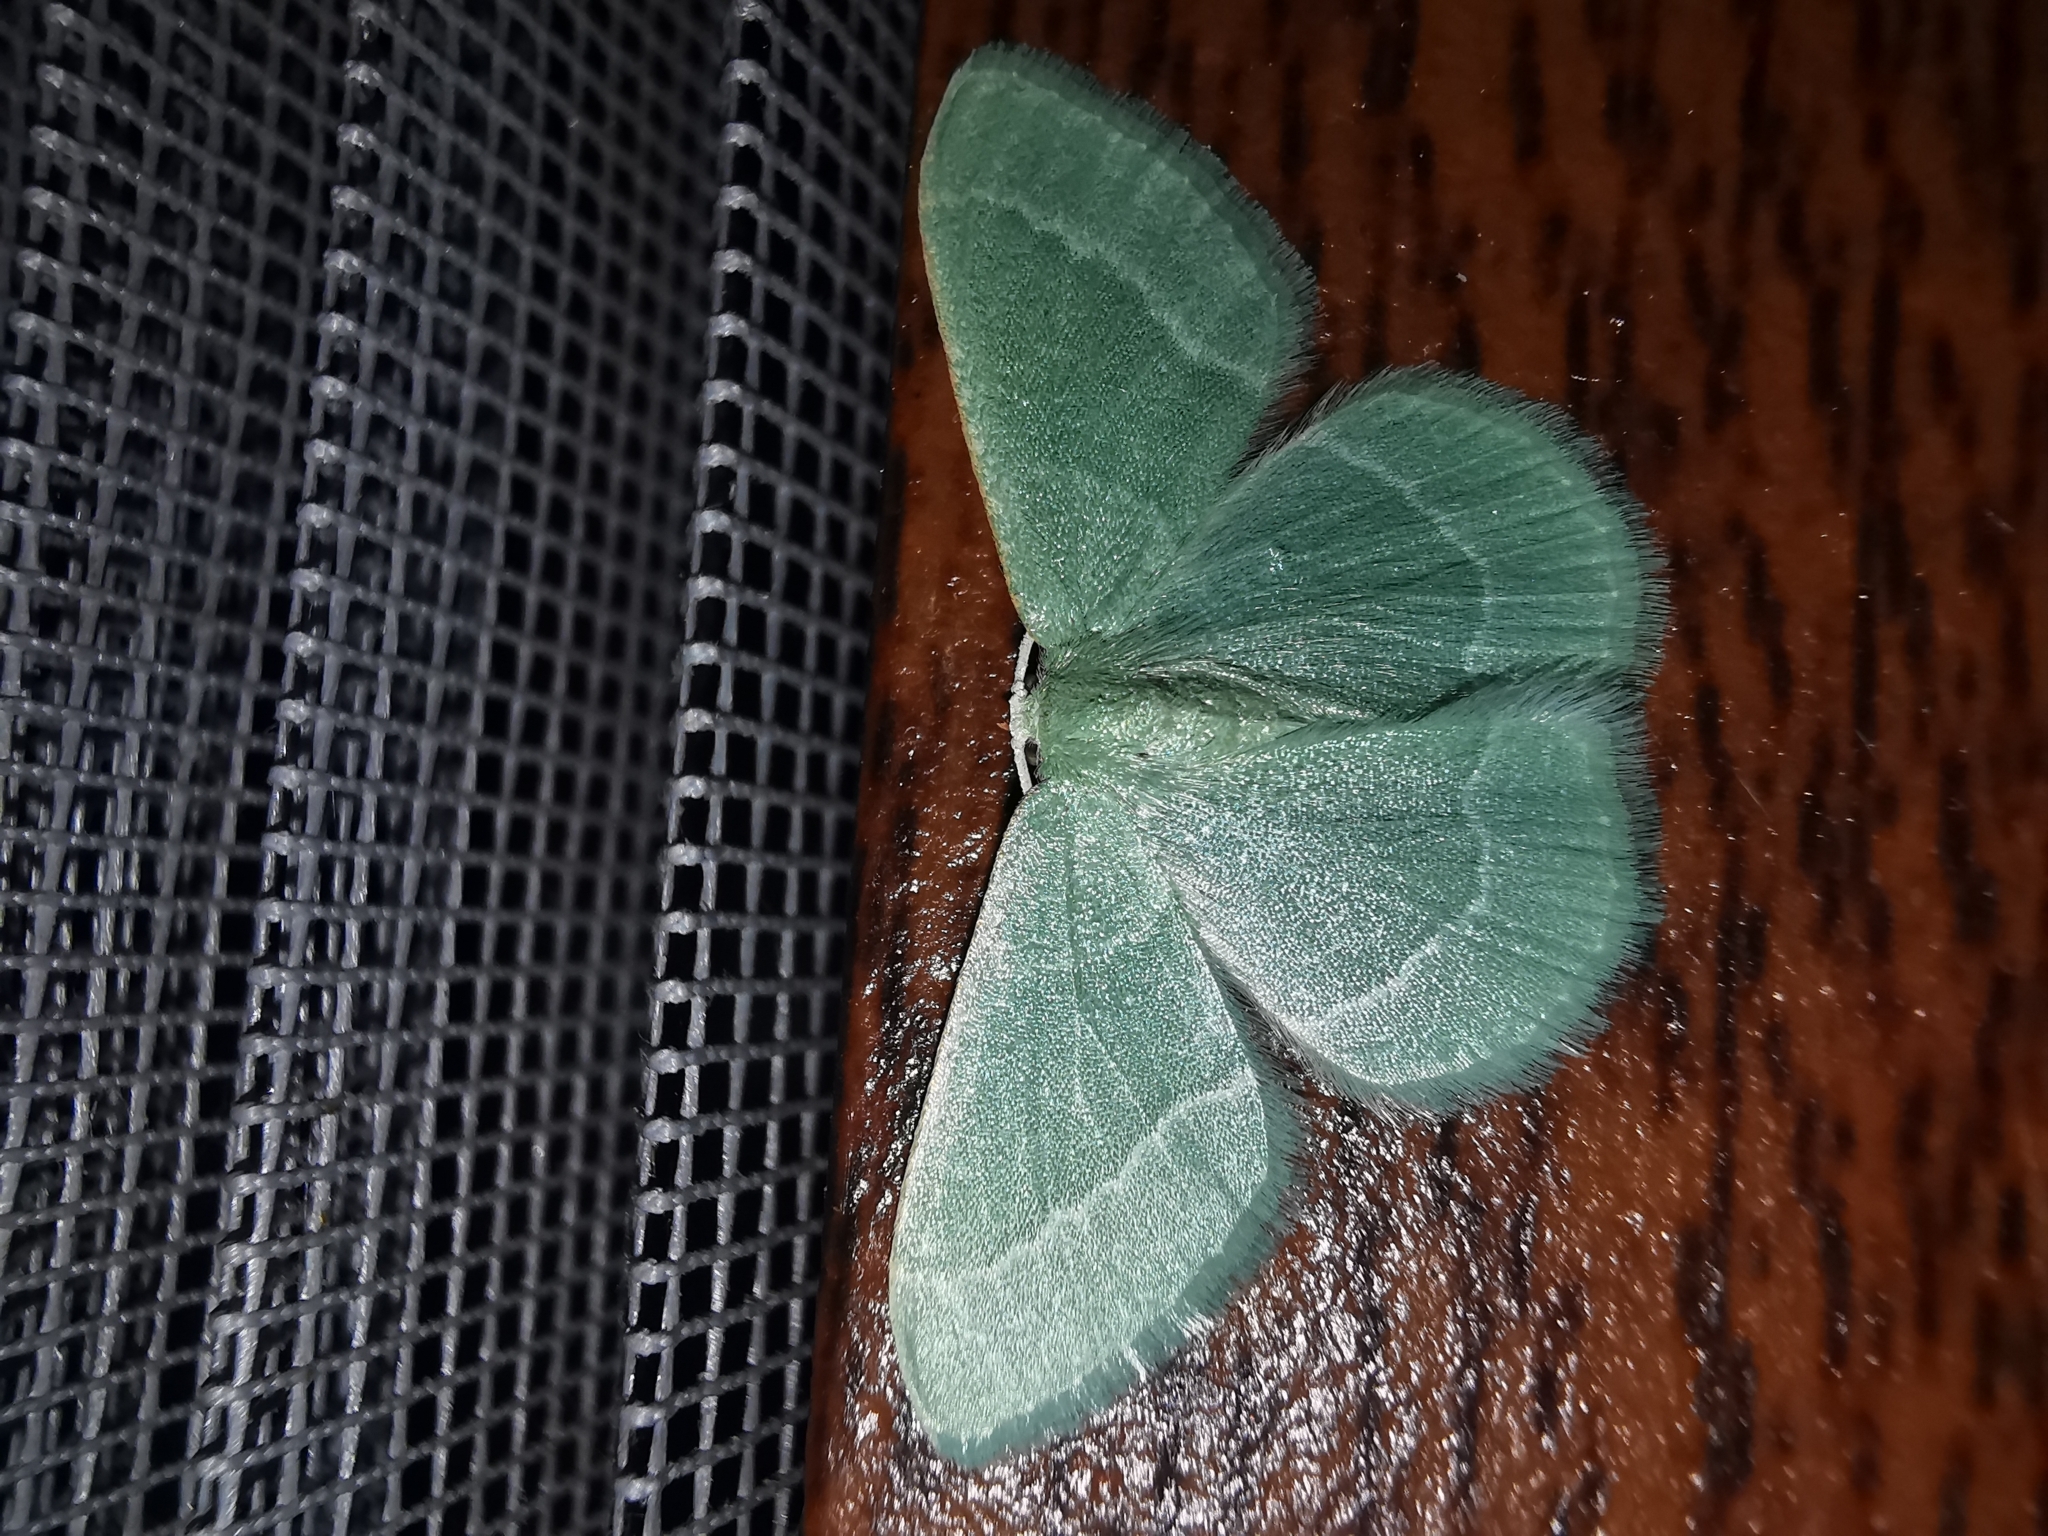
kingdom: Animalia
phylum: Arthropoda
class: Insecta
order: Lepidoptera
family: Geometridae
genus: Chlorissa
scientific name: Chlorissa etruscaria
